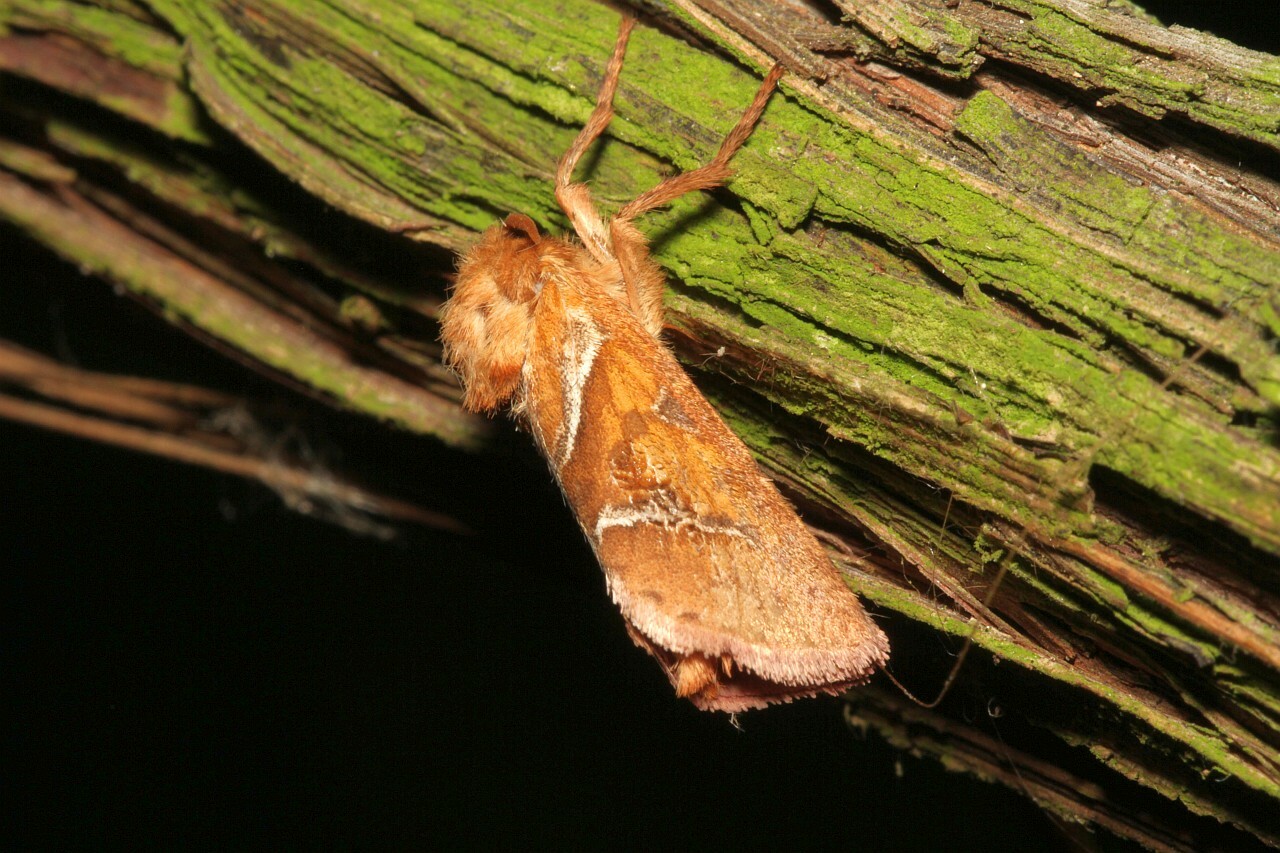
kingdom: Animalia
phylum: Arthropoda
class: Insecta
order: Lepidoptera
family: Hepialidae
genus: Triodia
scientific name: Triodia sylvina
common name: Orange swift
